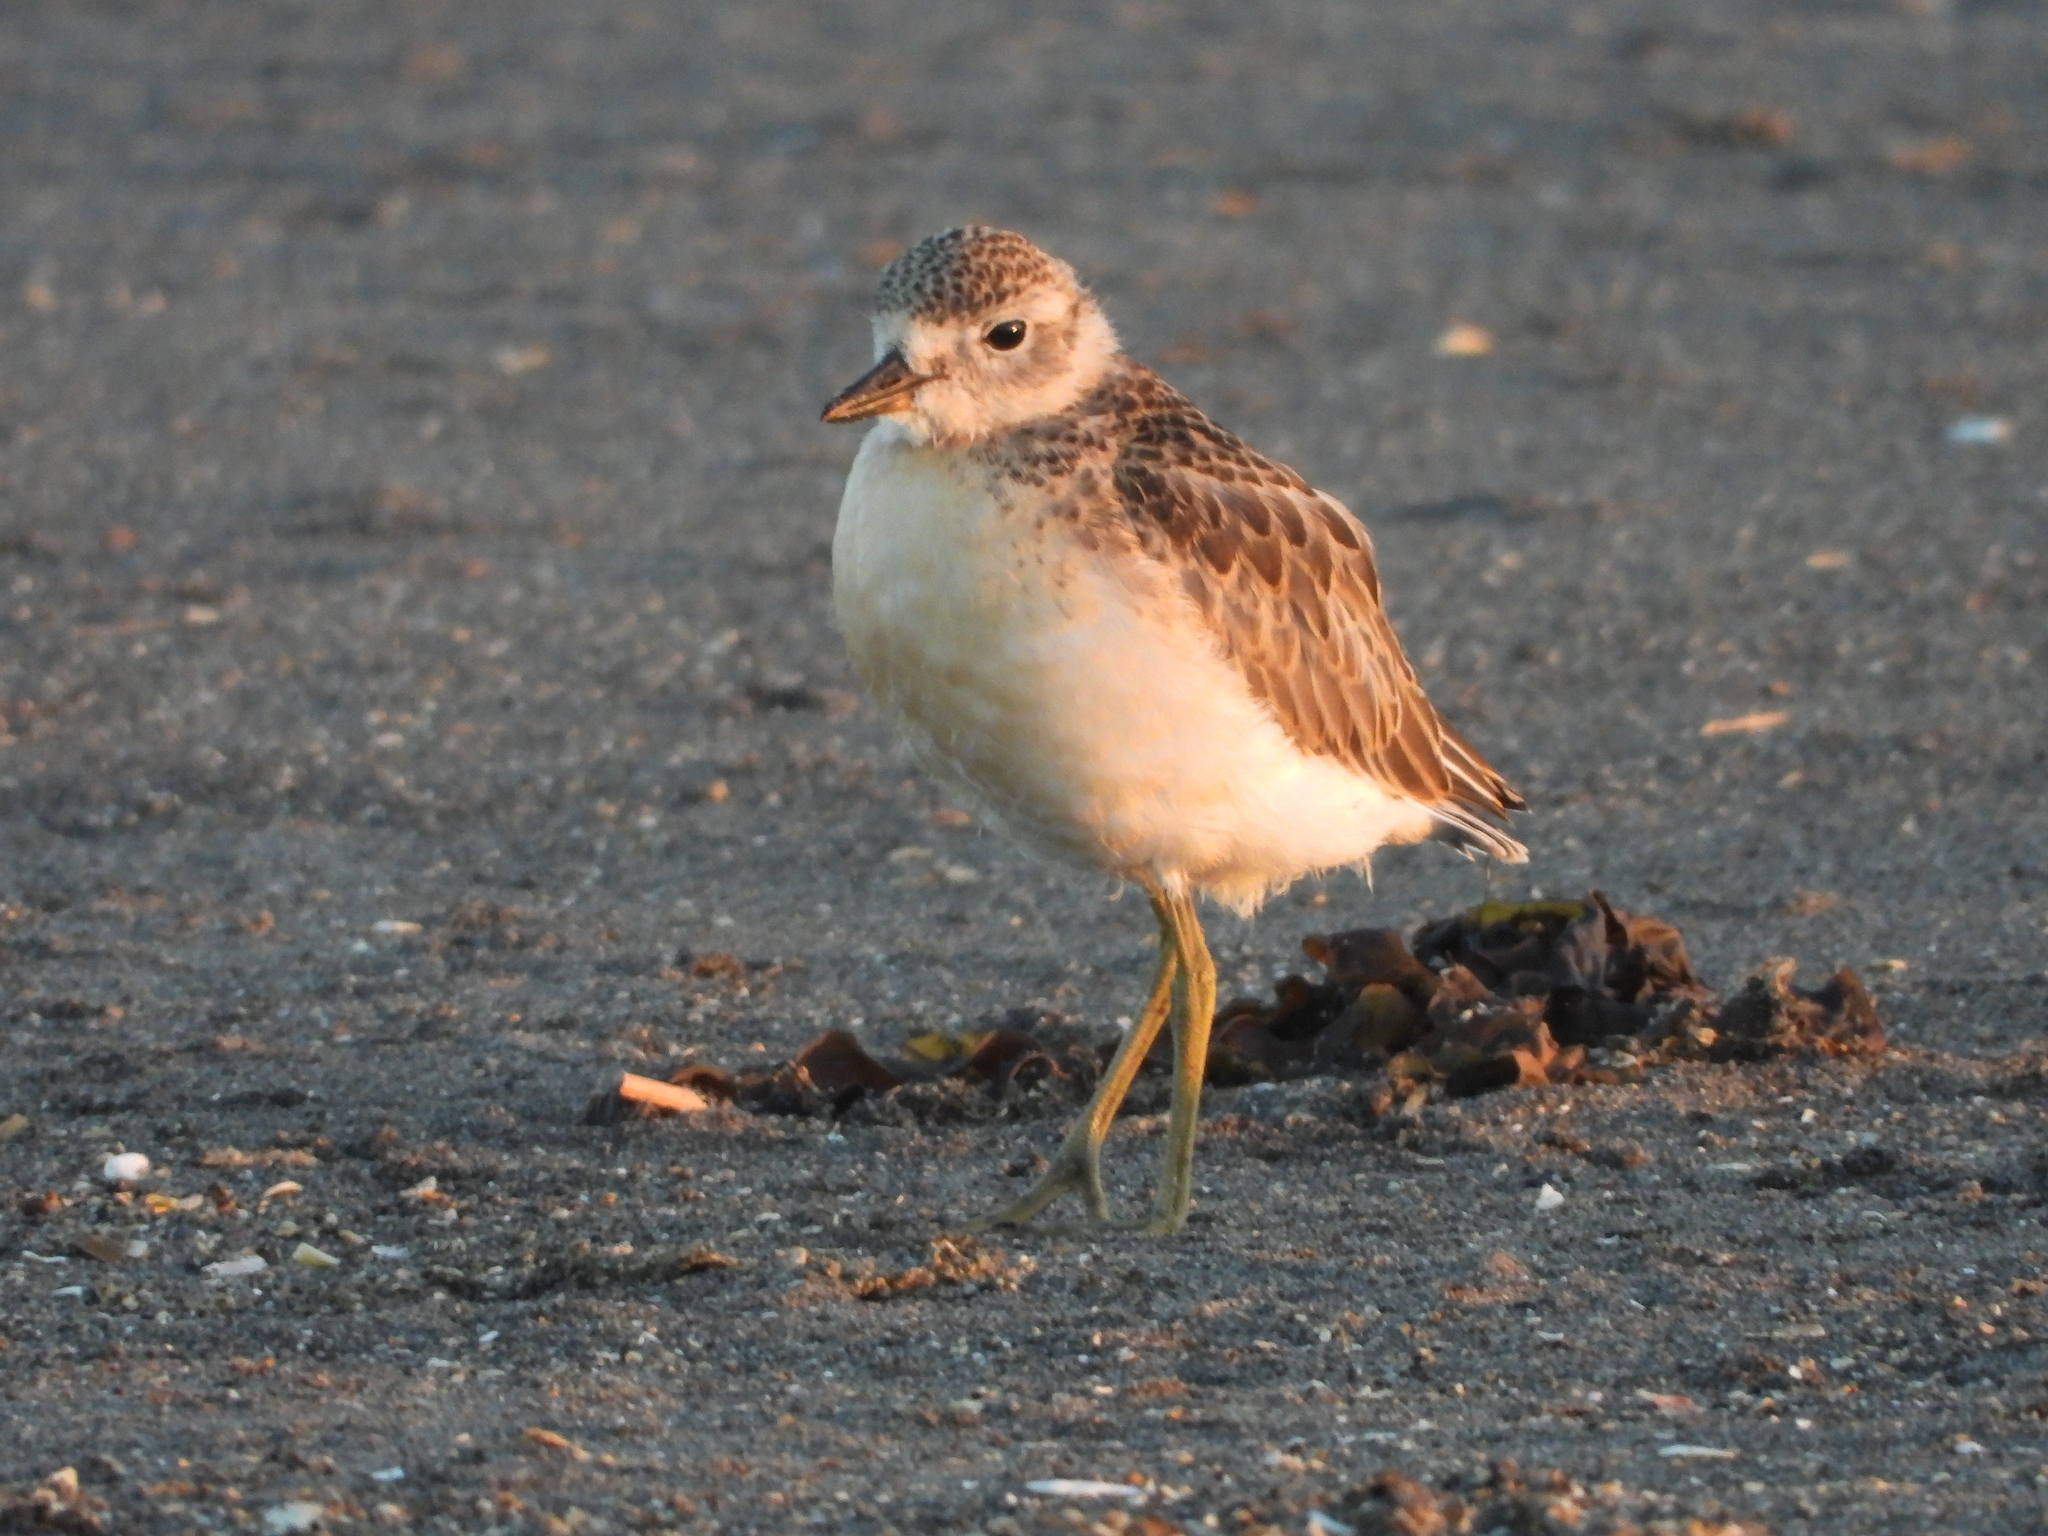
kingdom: Animalia
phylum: Chordata
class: Aves
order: Charadriiformes
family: Charadriidae
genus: Anarhynchus
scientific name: Anarhynchus
